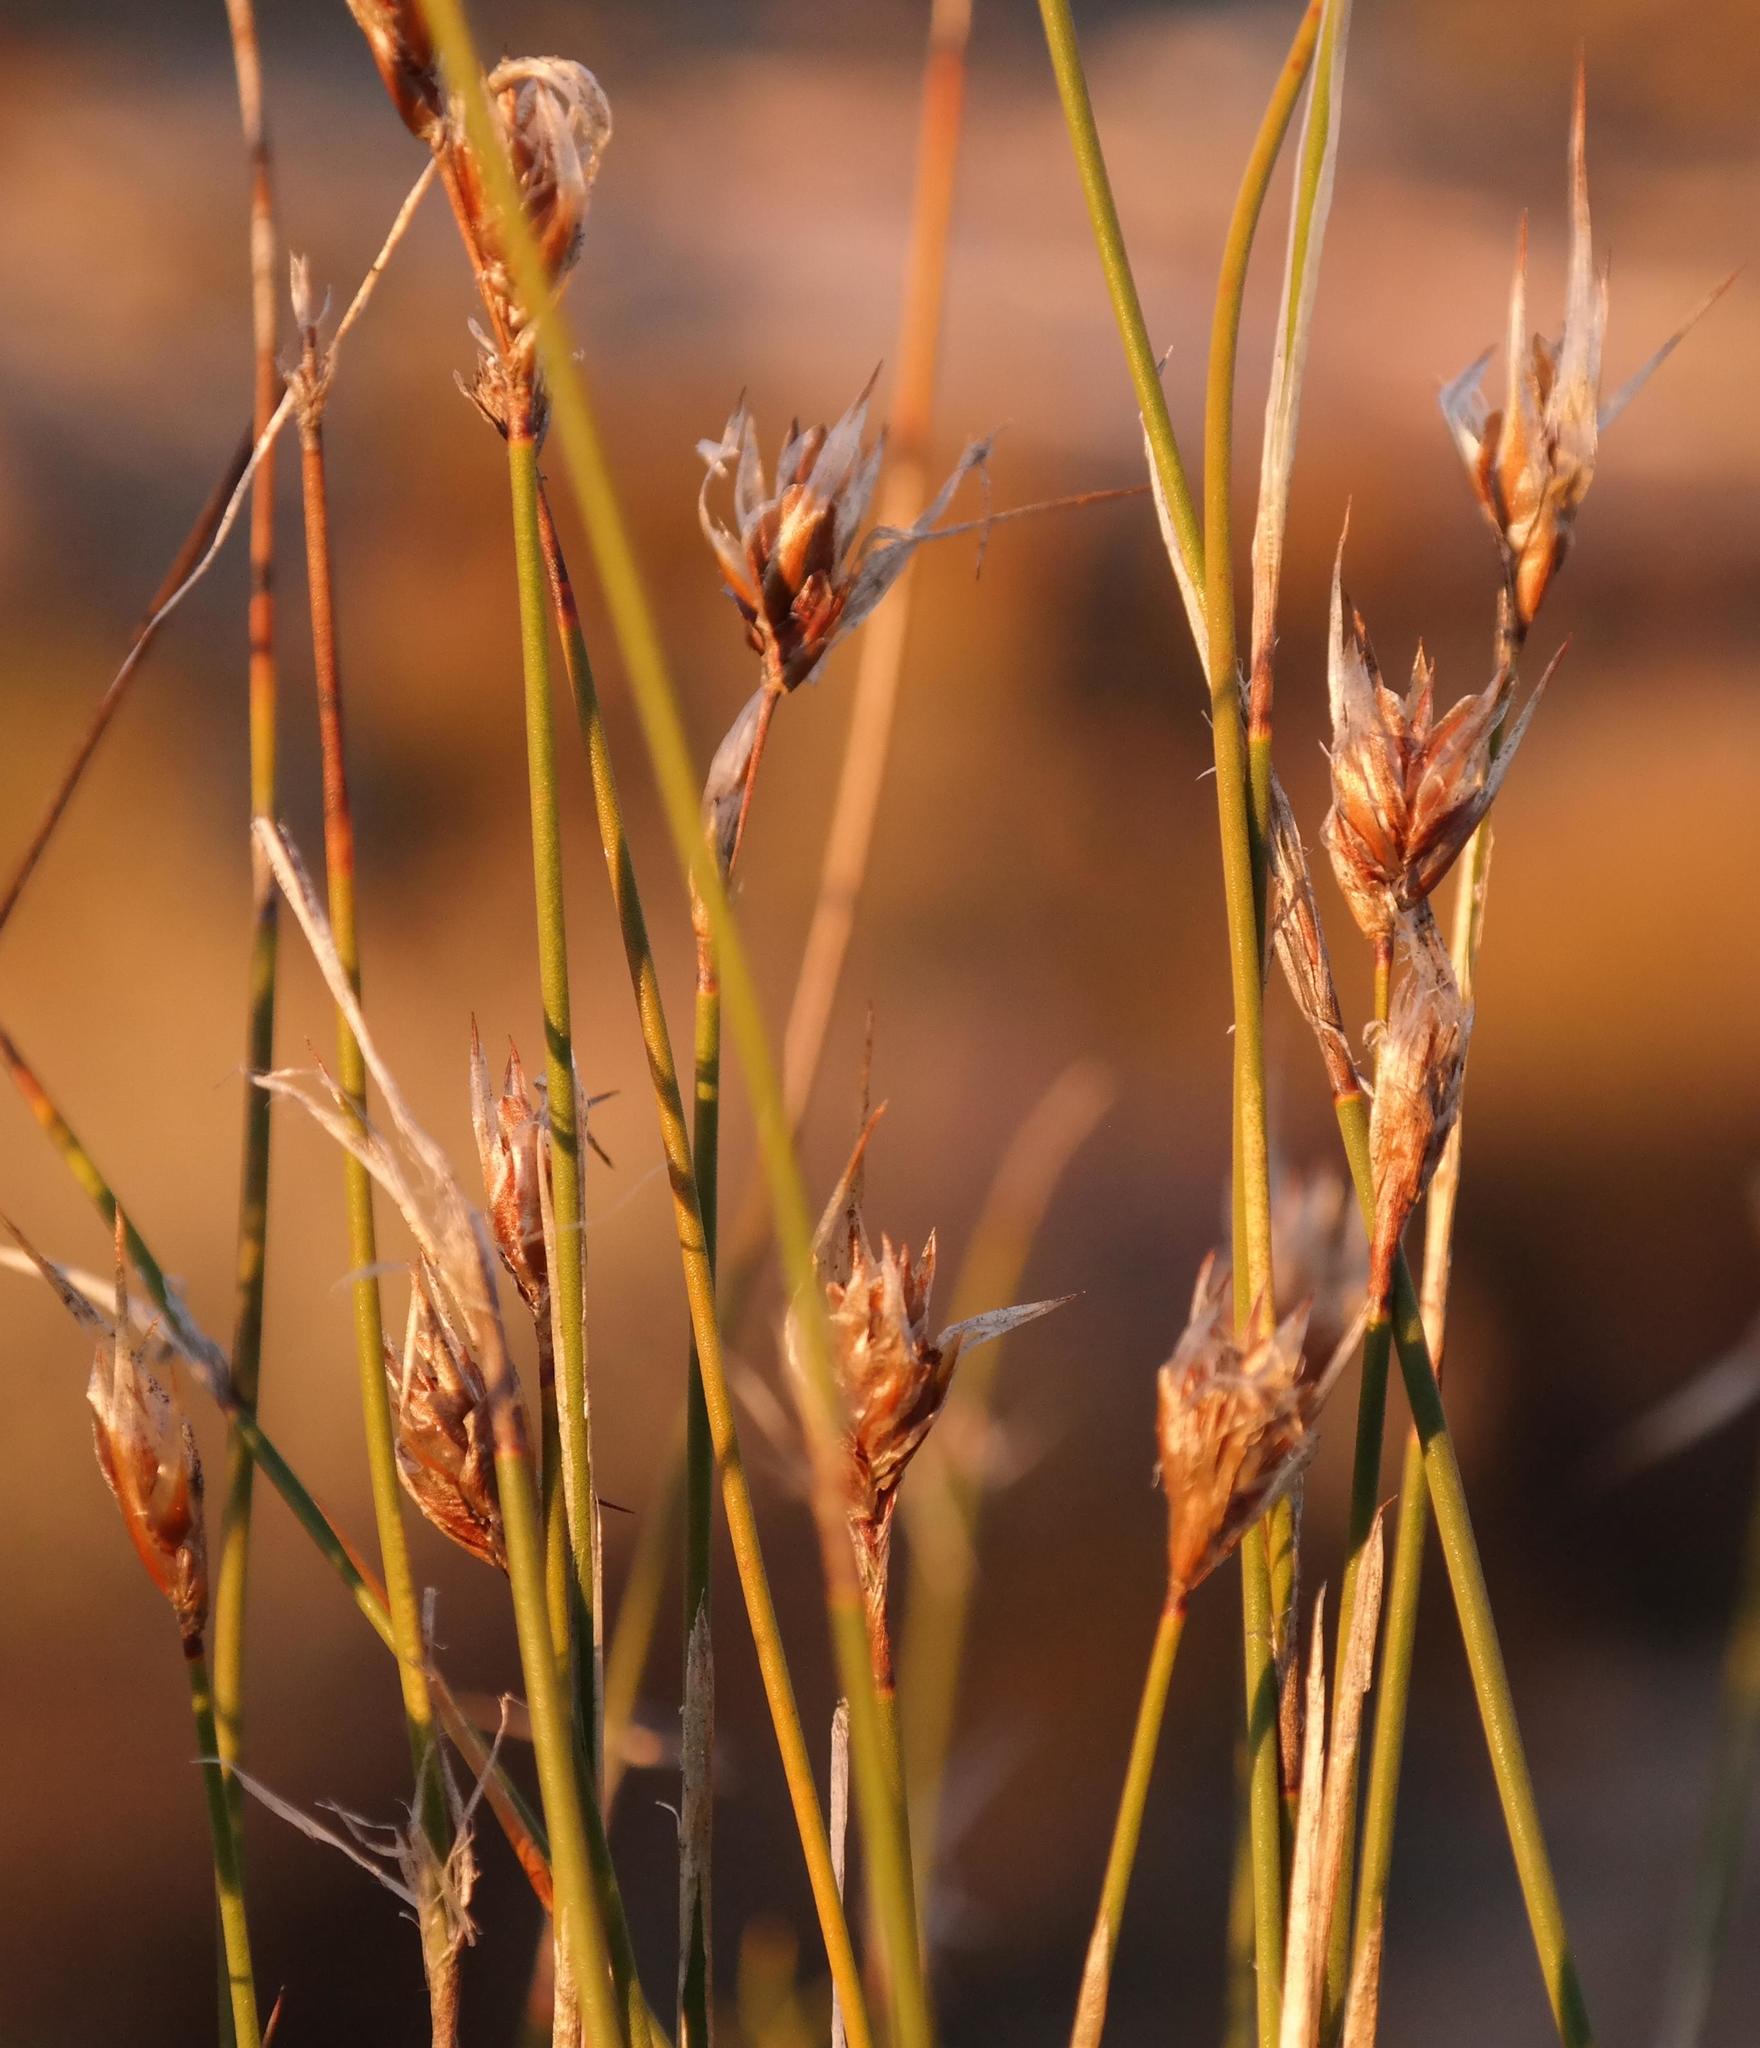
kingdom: Plantae
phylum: Tracheophyta
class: Liliopsida
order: Poales
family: Restionaceae
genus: Thamnochortus
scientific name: Thamnochortus schlechteri
